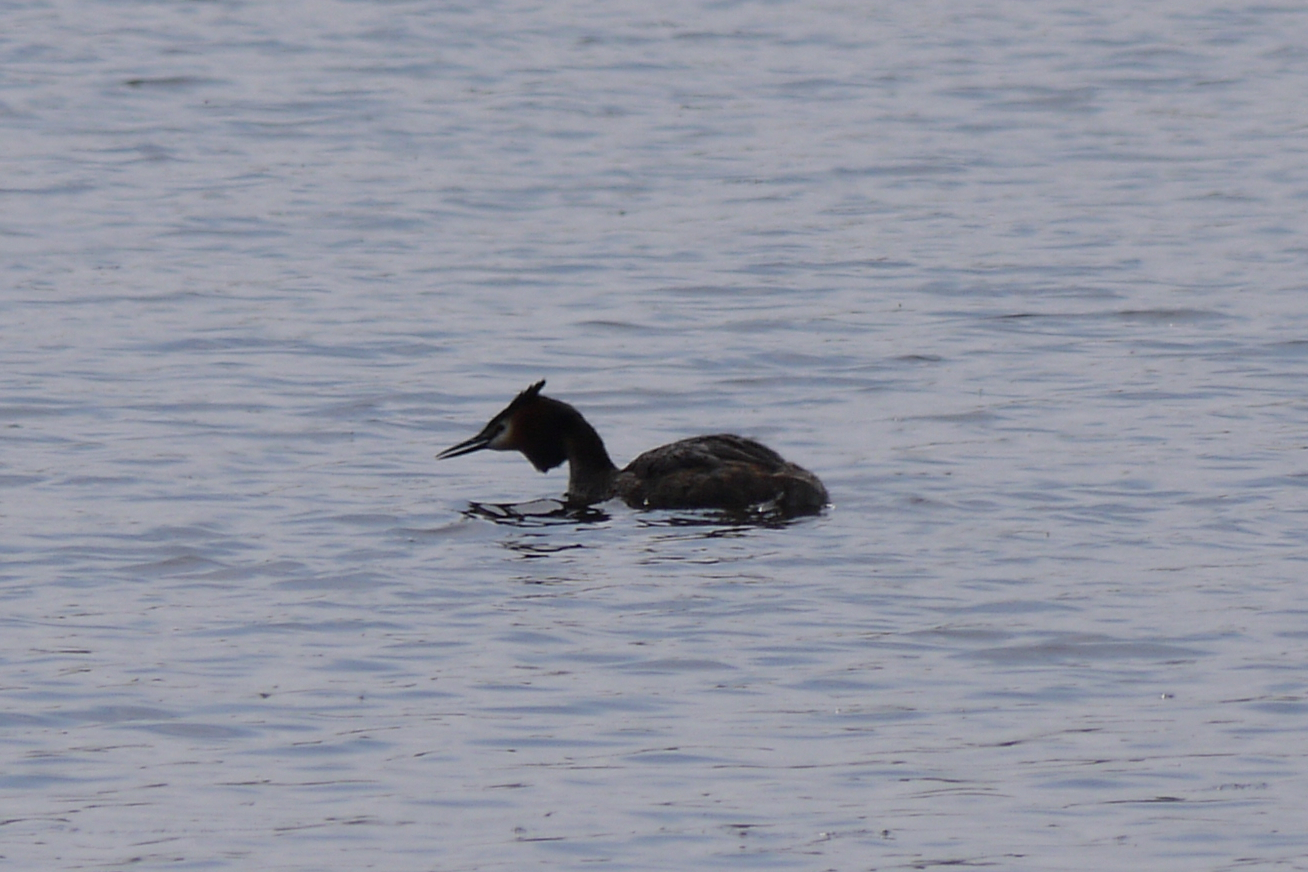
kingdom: Animalia
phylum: Chordata
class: Aves
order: Podicipediformes
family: Podicipedidae
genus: Podiceps
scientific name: Podiceps cristatus
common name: Great crested grebe
